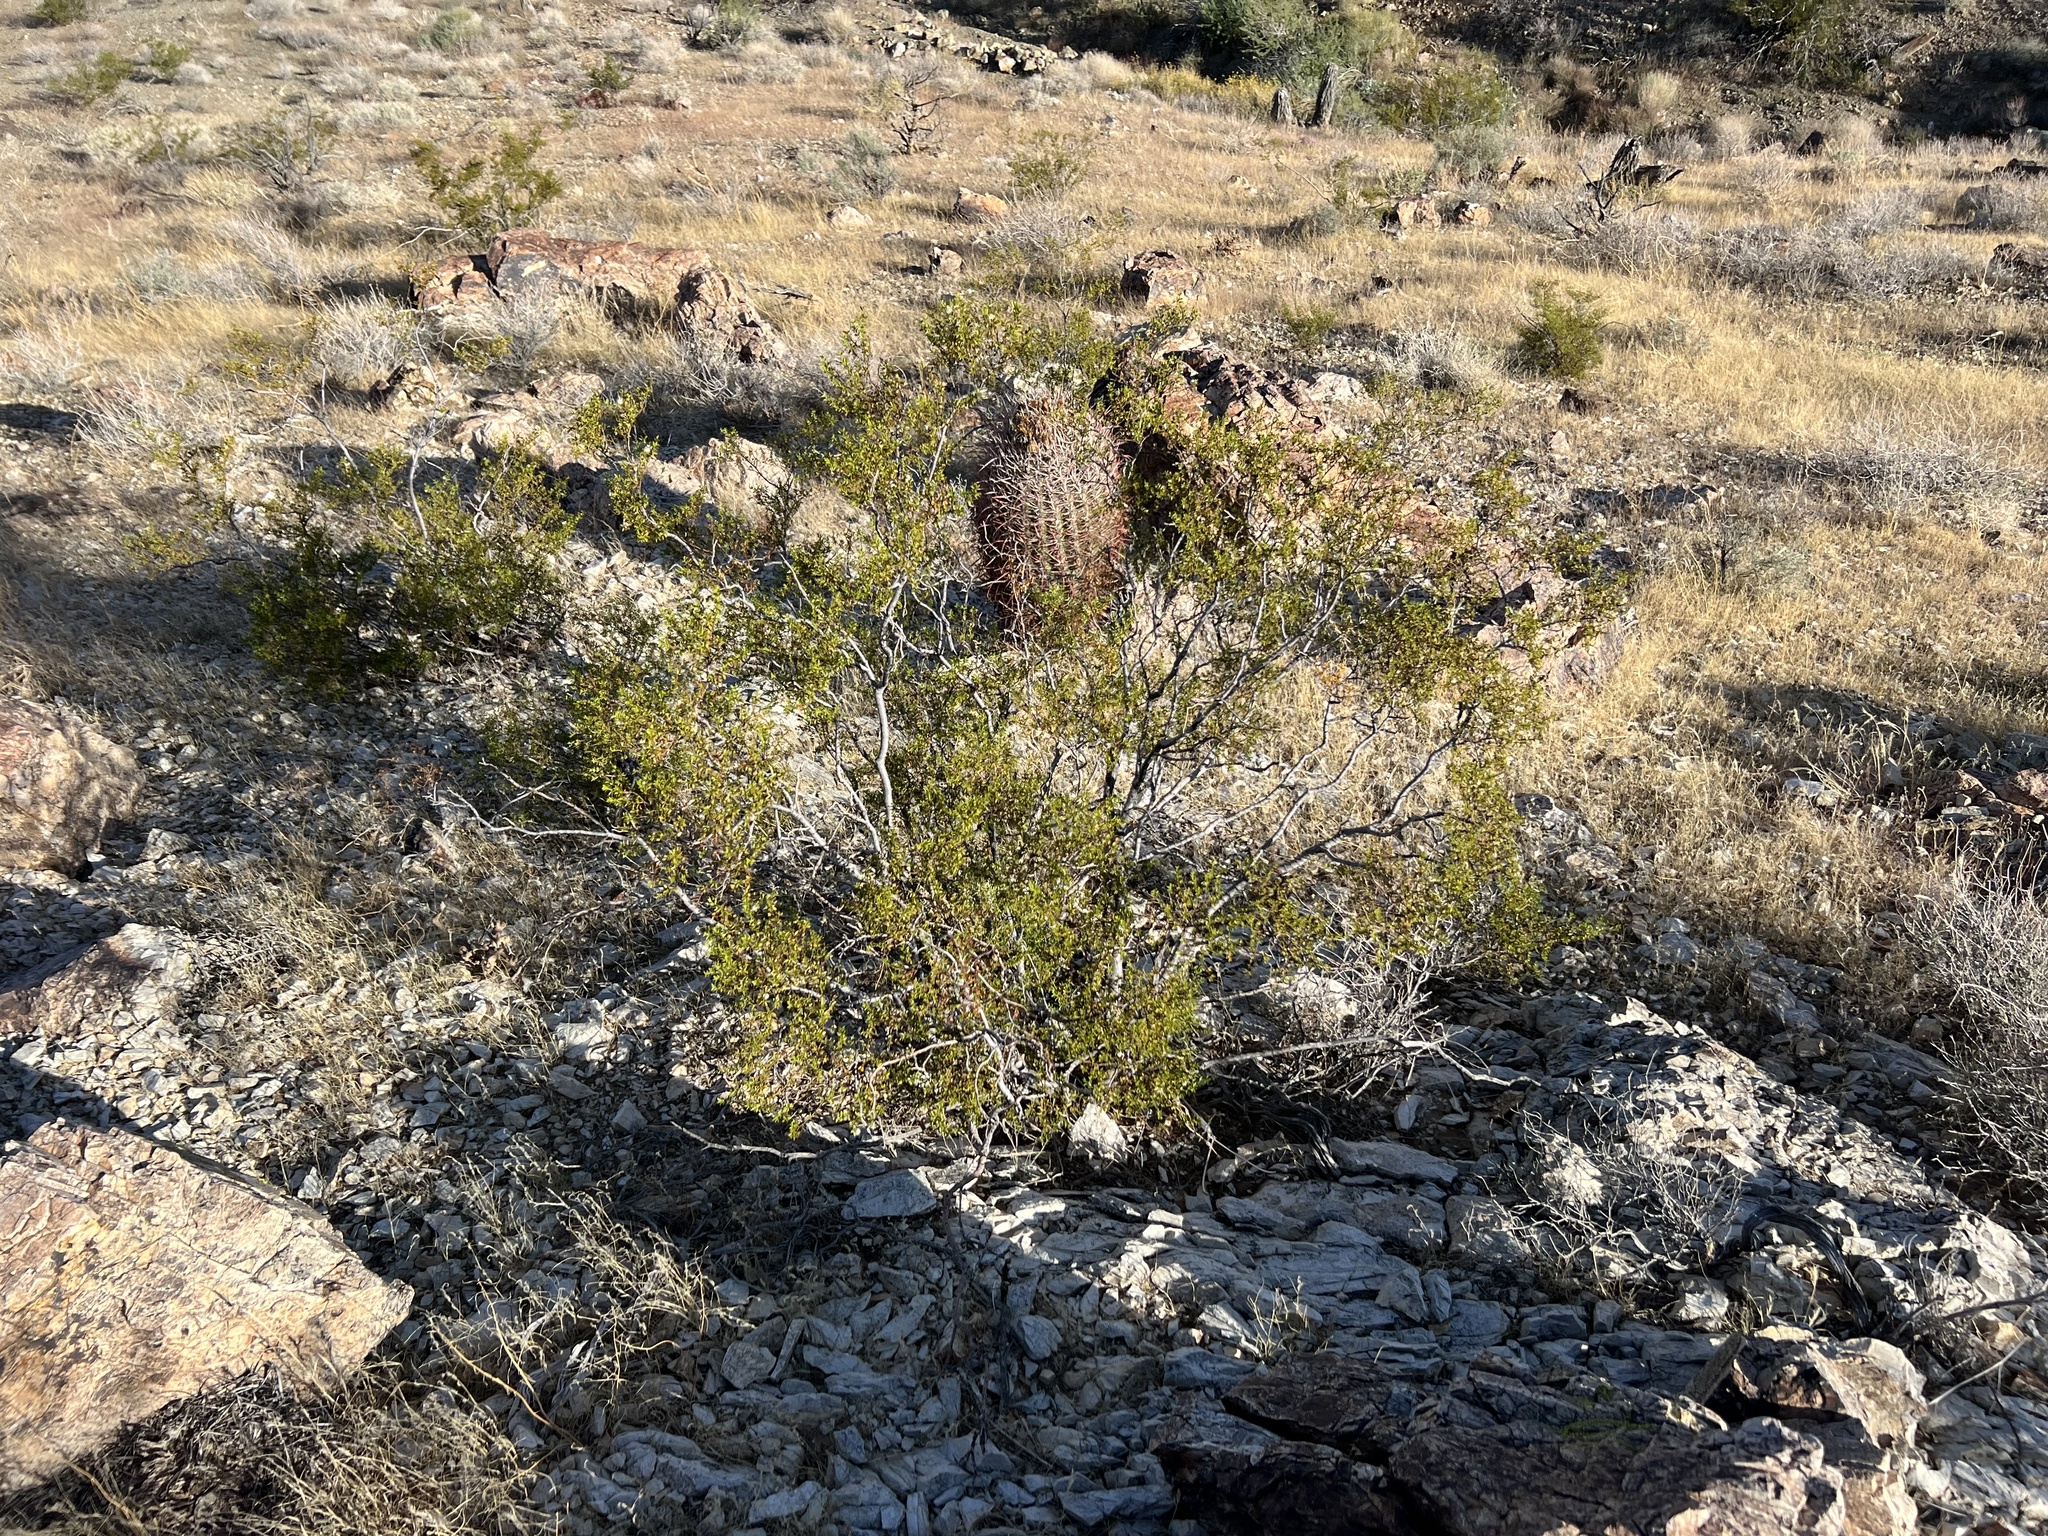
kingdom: Plantae
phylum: Tracheophyta
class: Magnoliopsida
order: Zygophyllales
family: Zygophyllaceae
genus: Larrea
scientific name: Larrea tridentata
